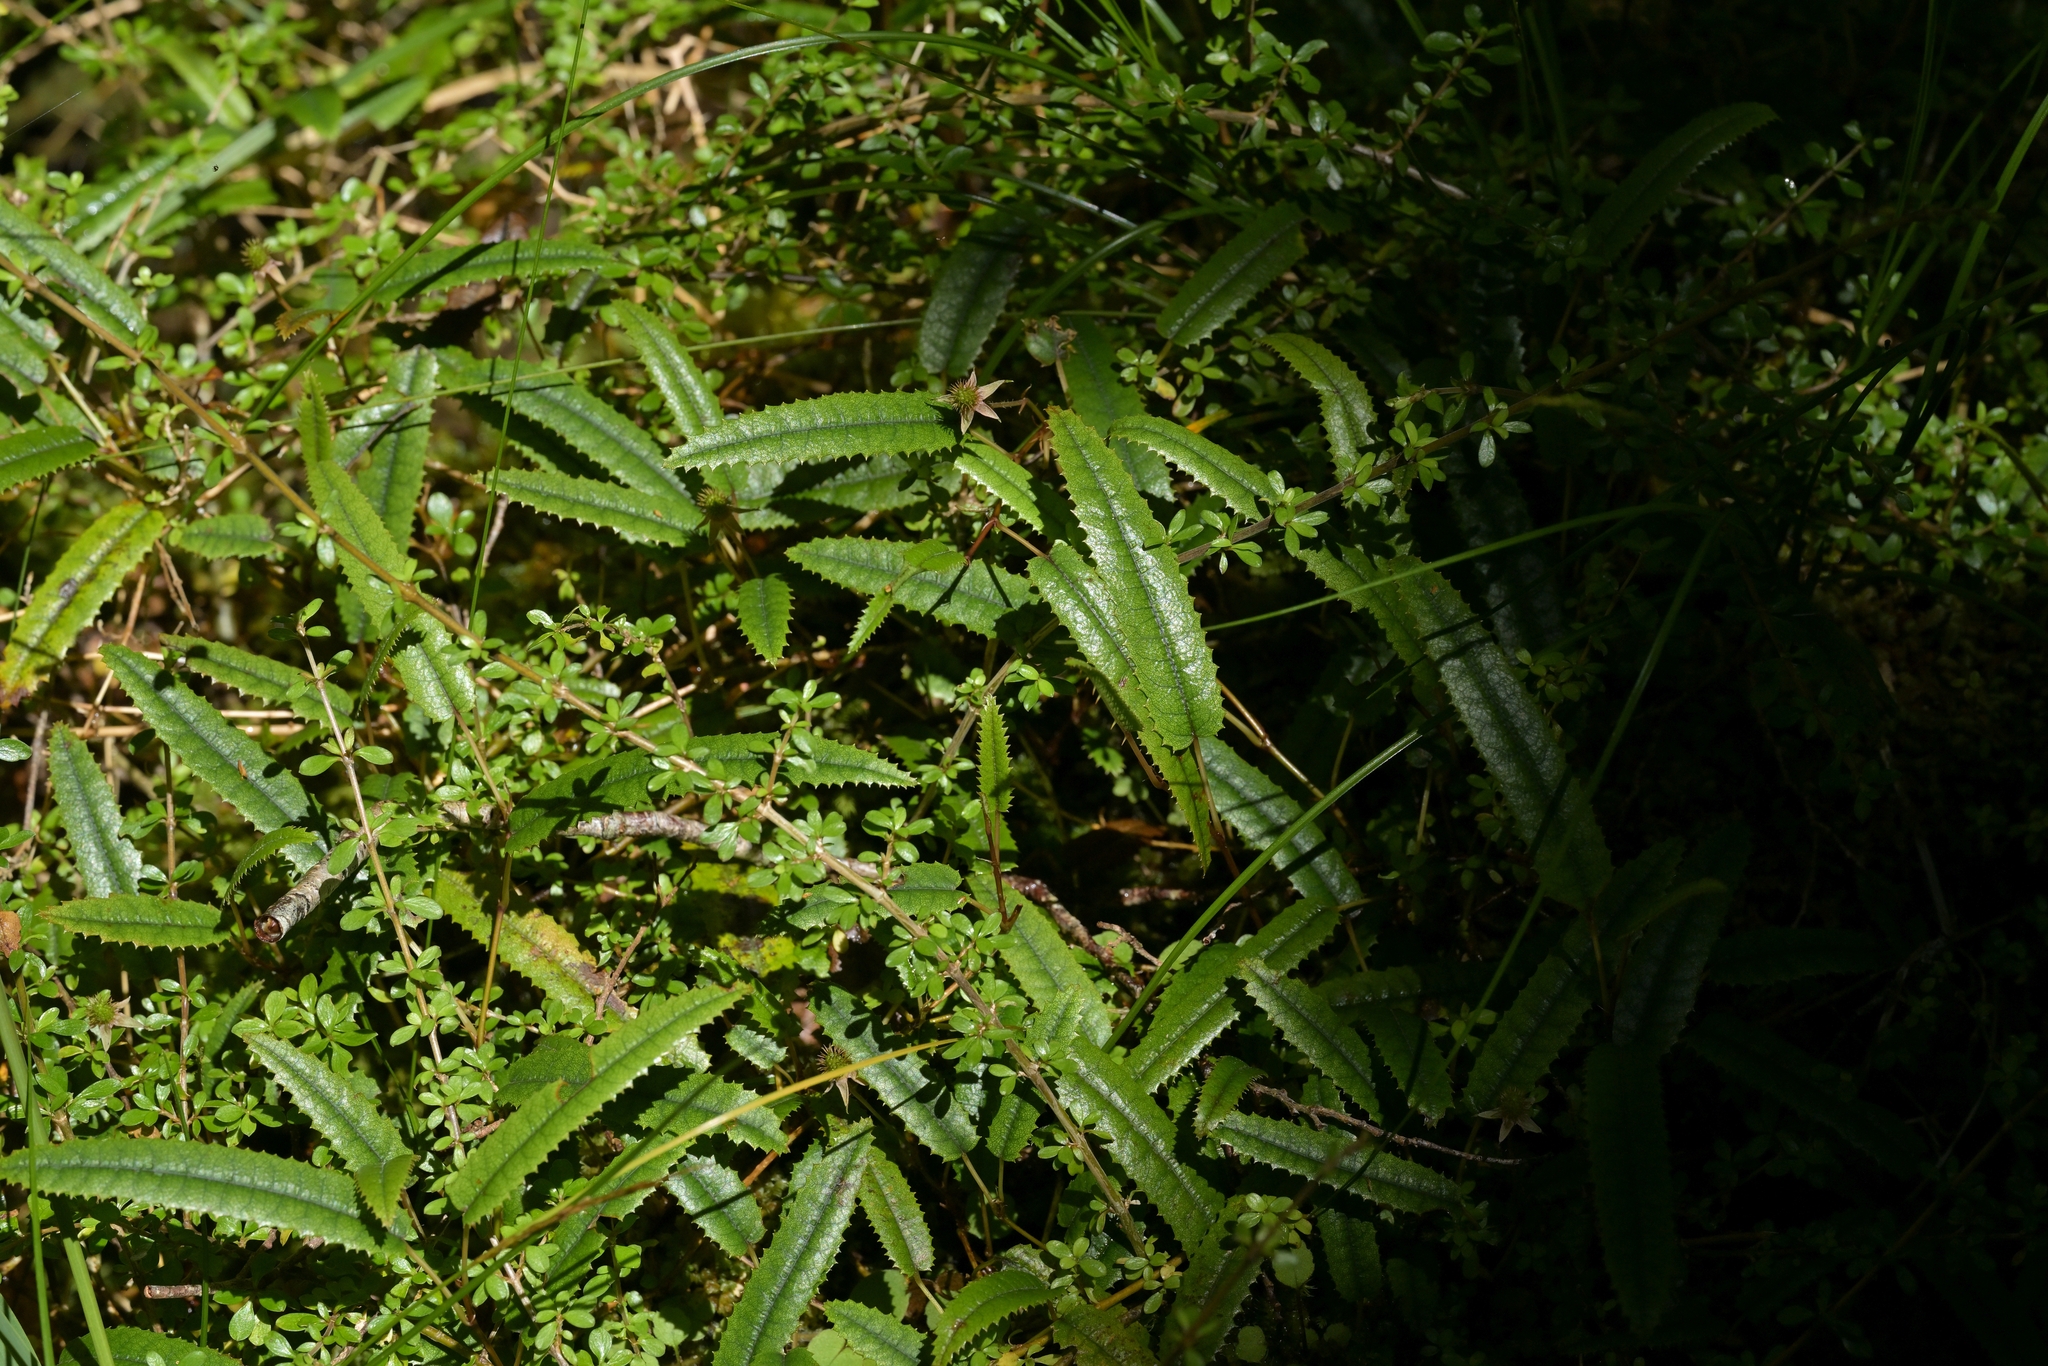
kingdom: Plantae
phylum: Tracheophyta
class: Magnoliopsida
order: Rosales
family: Rosaceae
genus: Rubus
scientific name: Rubus parvus
